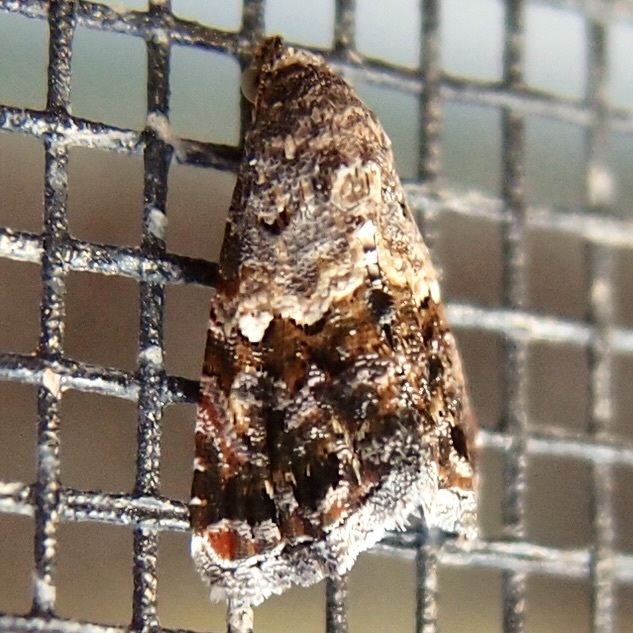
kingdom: Animalia
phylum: Arthropoda
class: Insecta
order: Lepidoptera
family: Noctuidae
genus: Tripudia
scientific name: Tripudia luxuriosa
